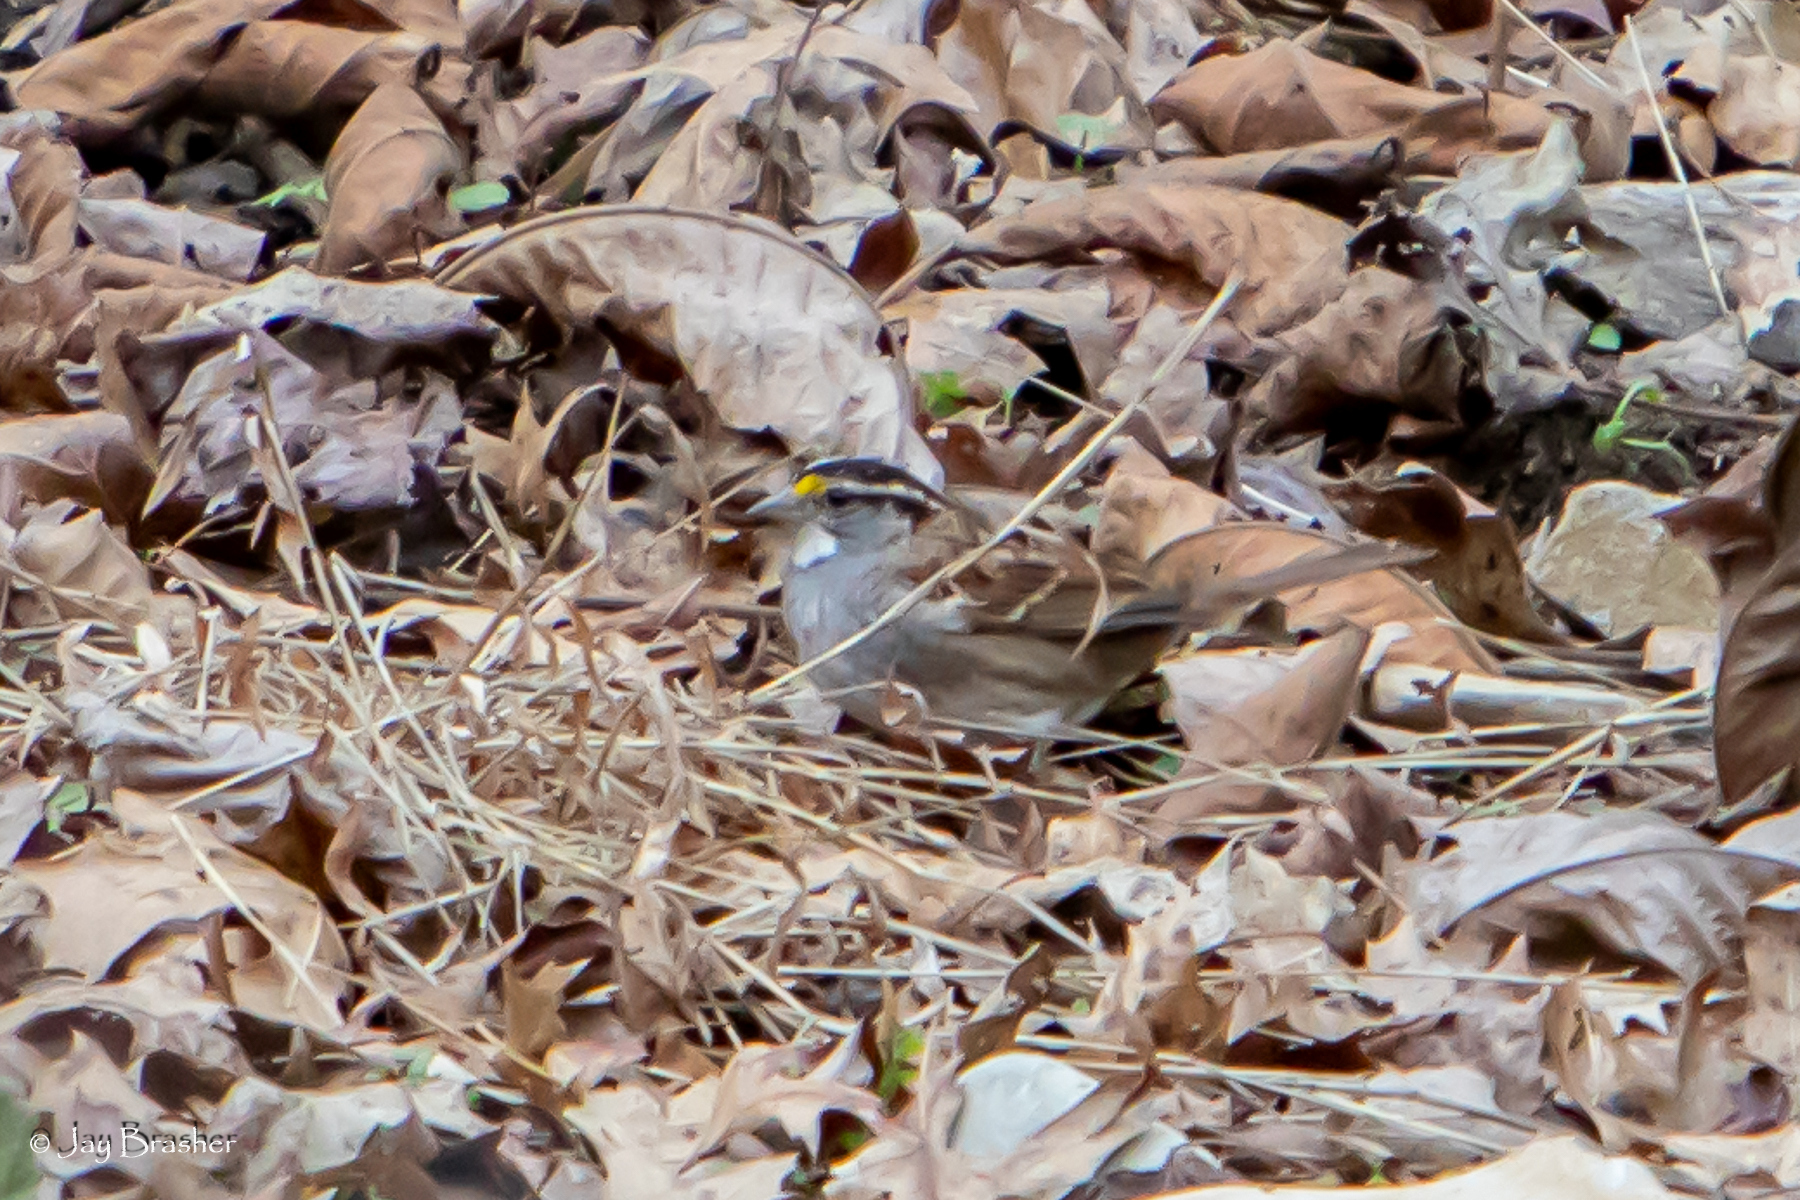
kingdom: Animalia
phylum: Chordata
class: Aves
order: Passeriformes
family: Passerellidae
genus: Zonotrichia
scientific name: Zonotrichia albicollis
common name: White-throated sparrow
